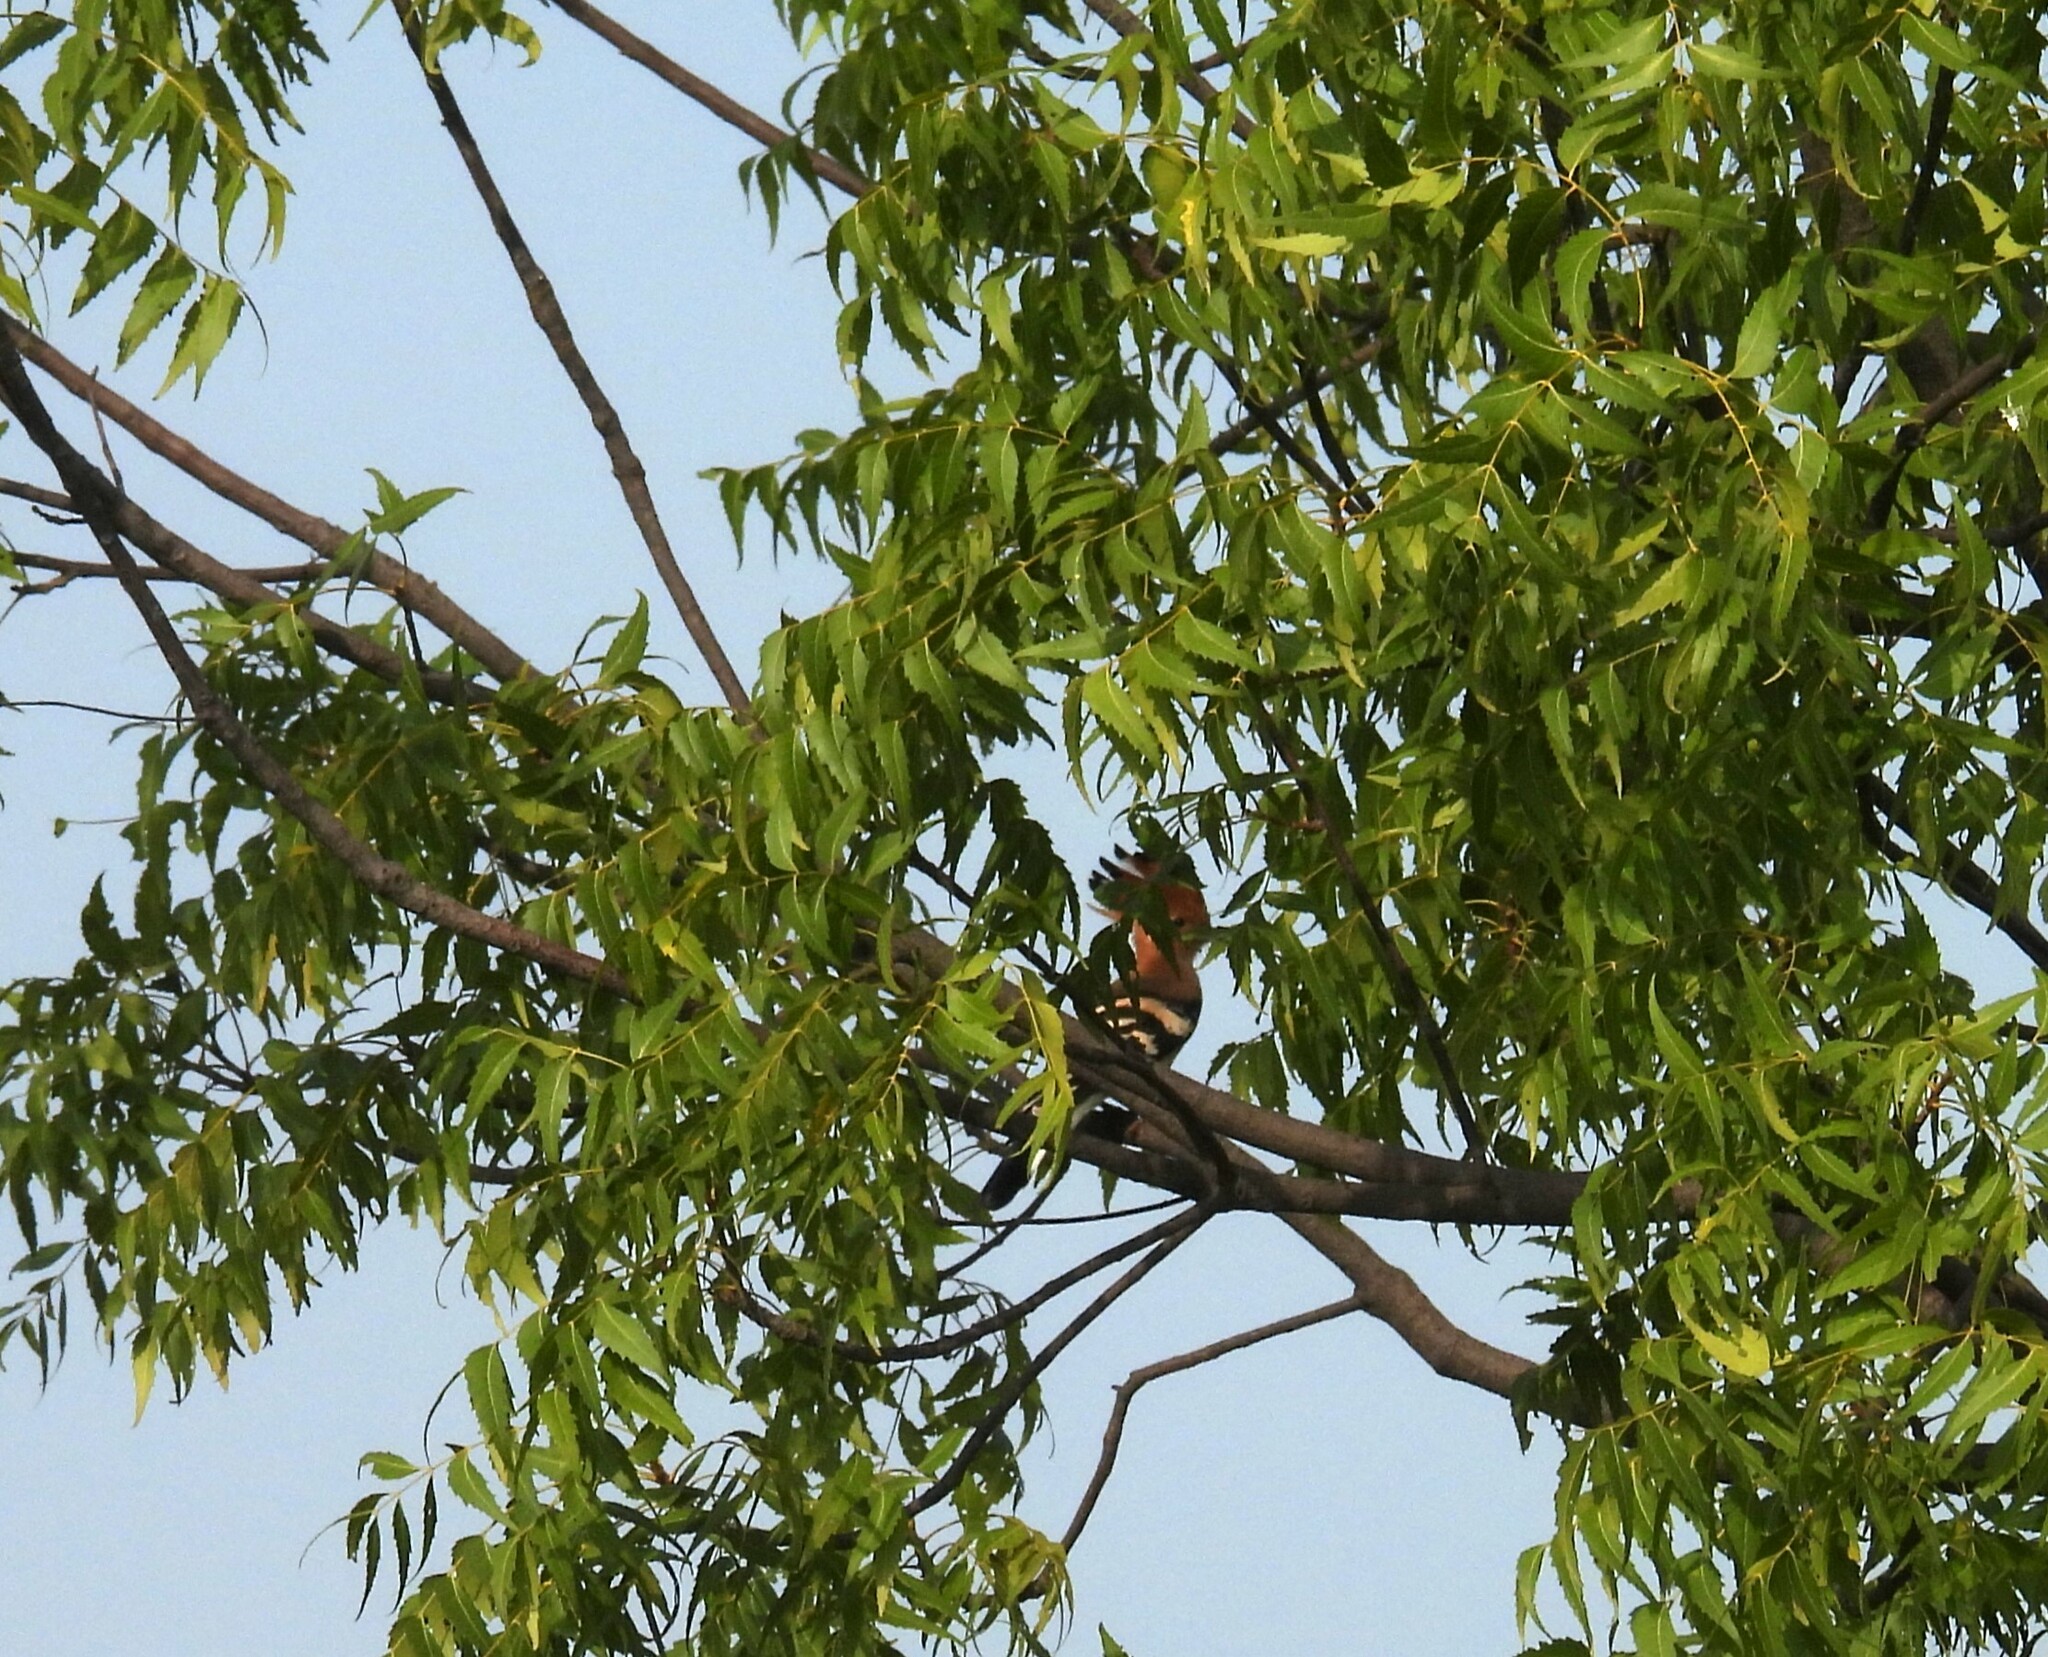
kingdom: Animalia
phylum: Chordata
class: Aves
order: Bucerotiformes
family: Upupidae
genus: Upupa
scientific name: Upupa epops
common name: Eurasian hoopoe
